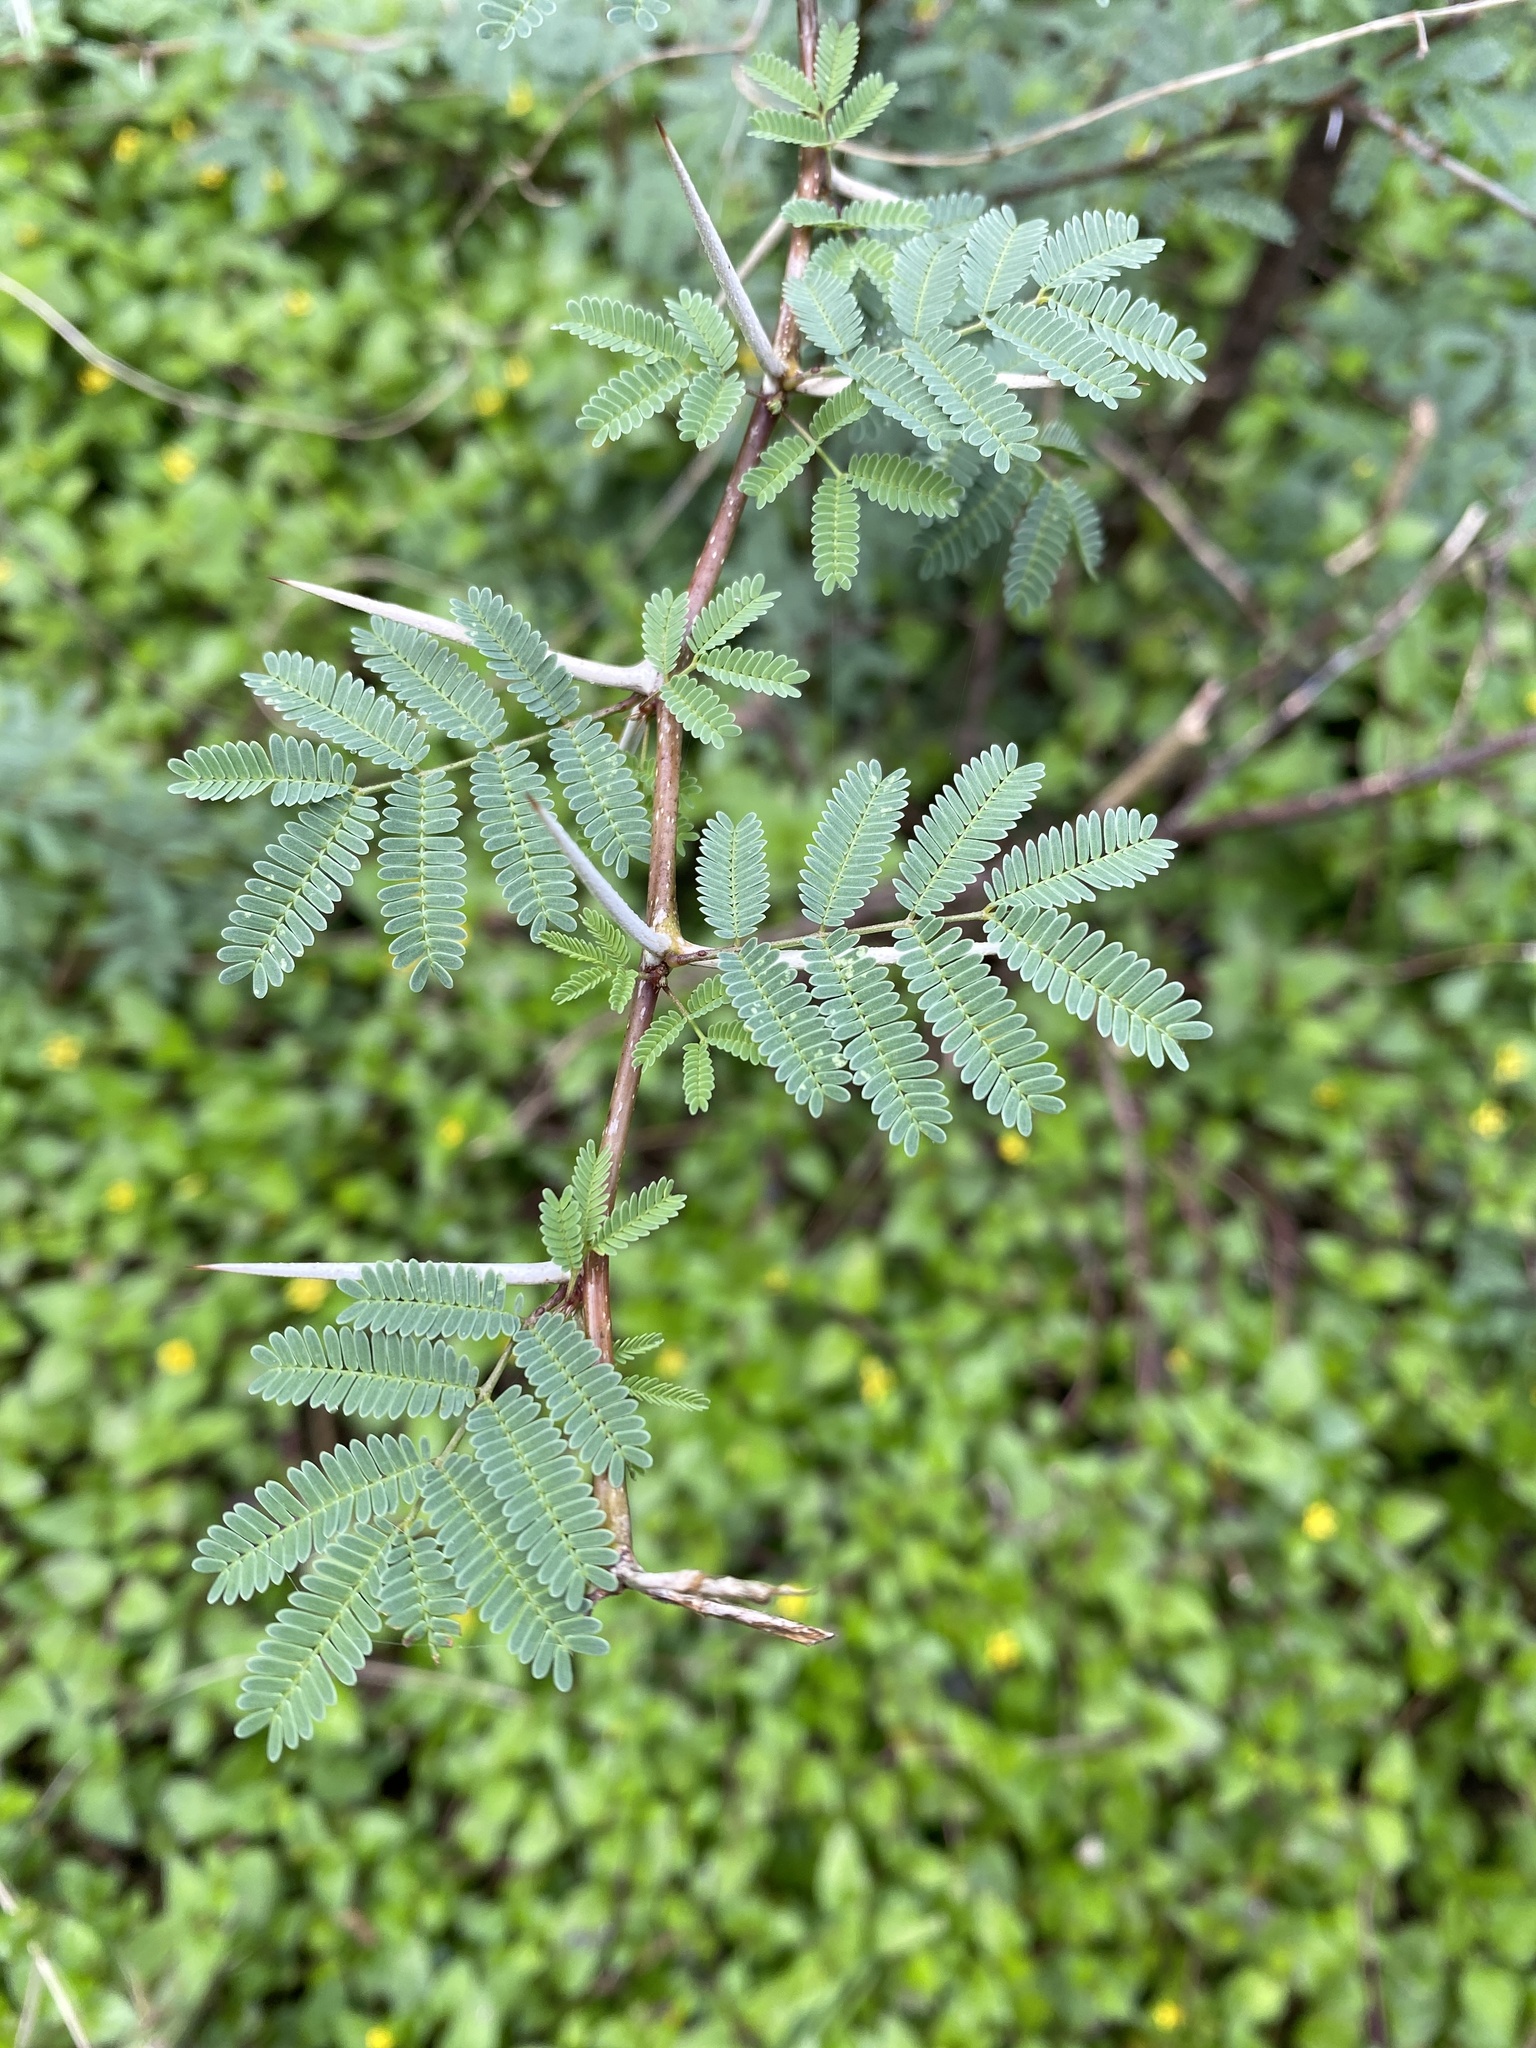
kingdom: Plantae
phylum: Tracheophyta
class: Magnoliopsida
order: Fabales
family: Fabaceae
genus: Vachellia
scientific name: Vachellia farnesiana
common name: Sweet acacia
